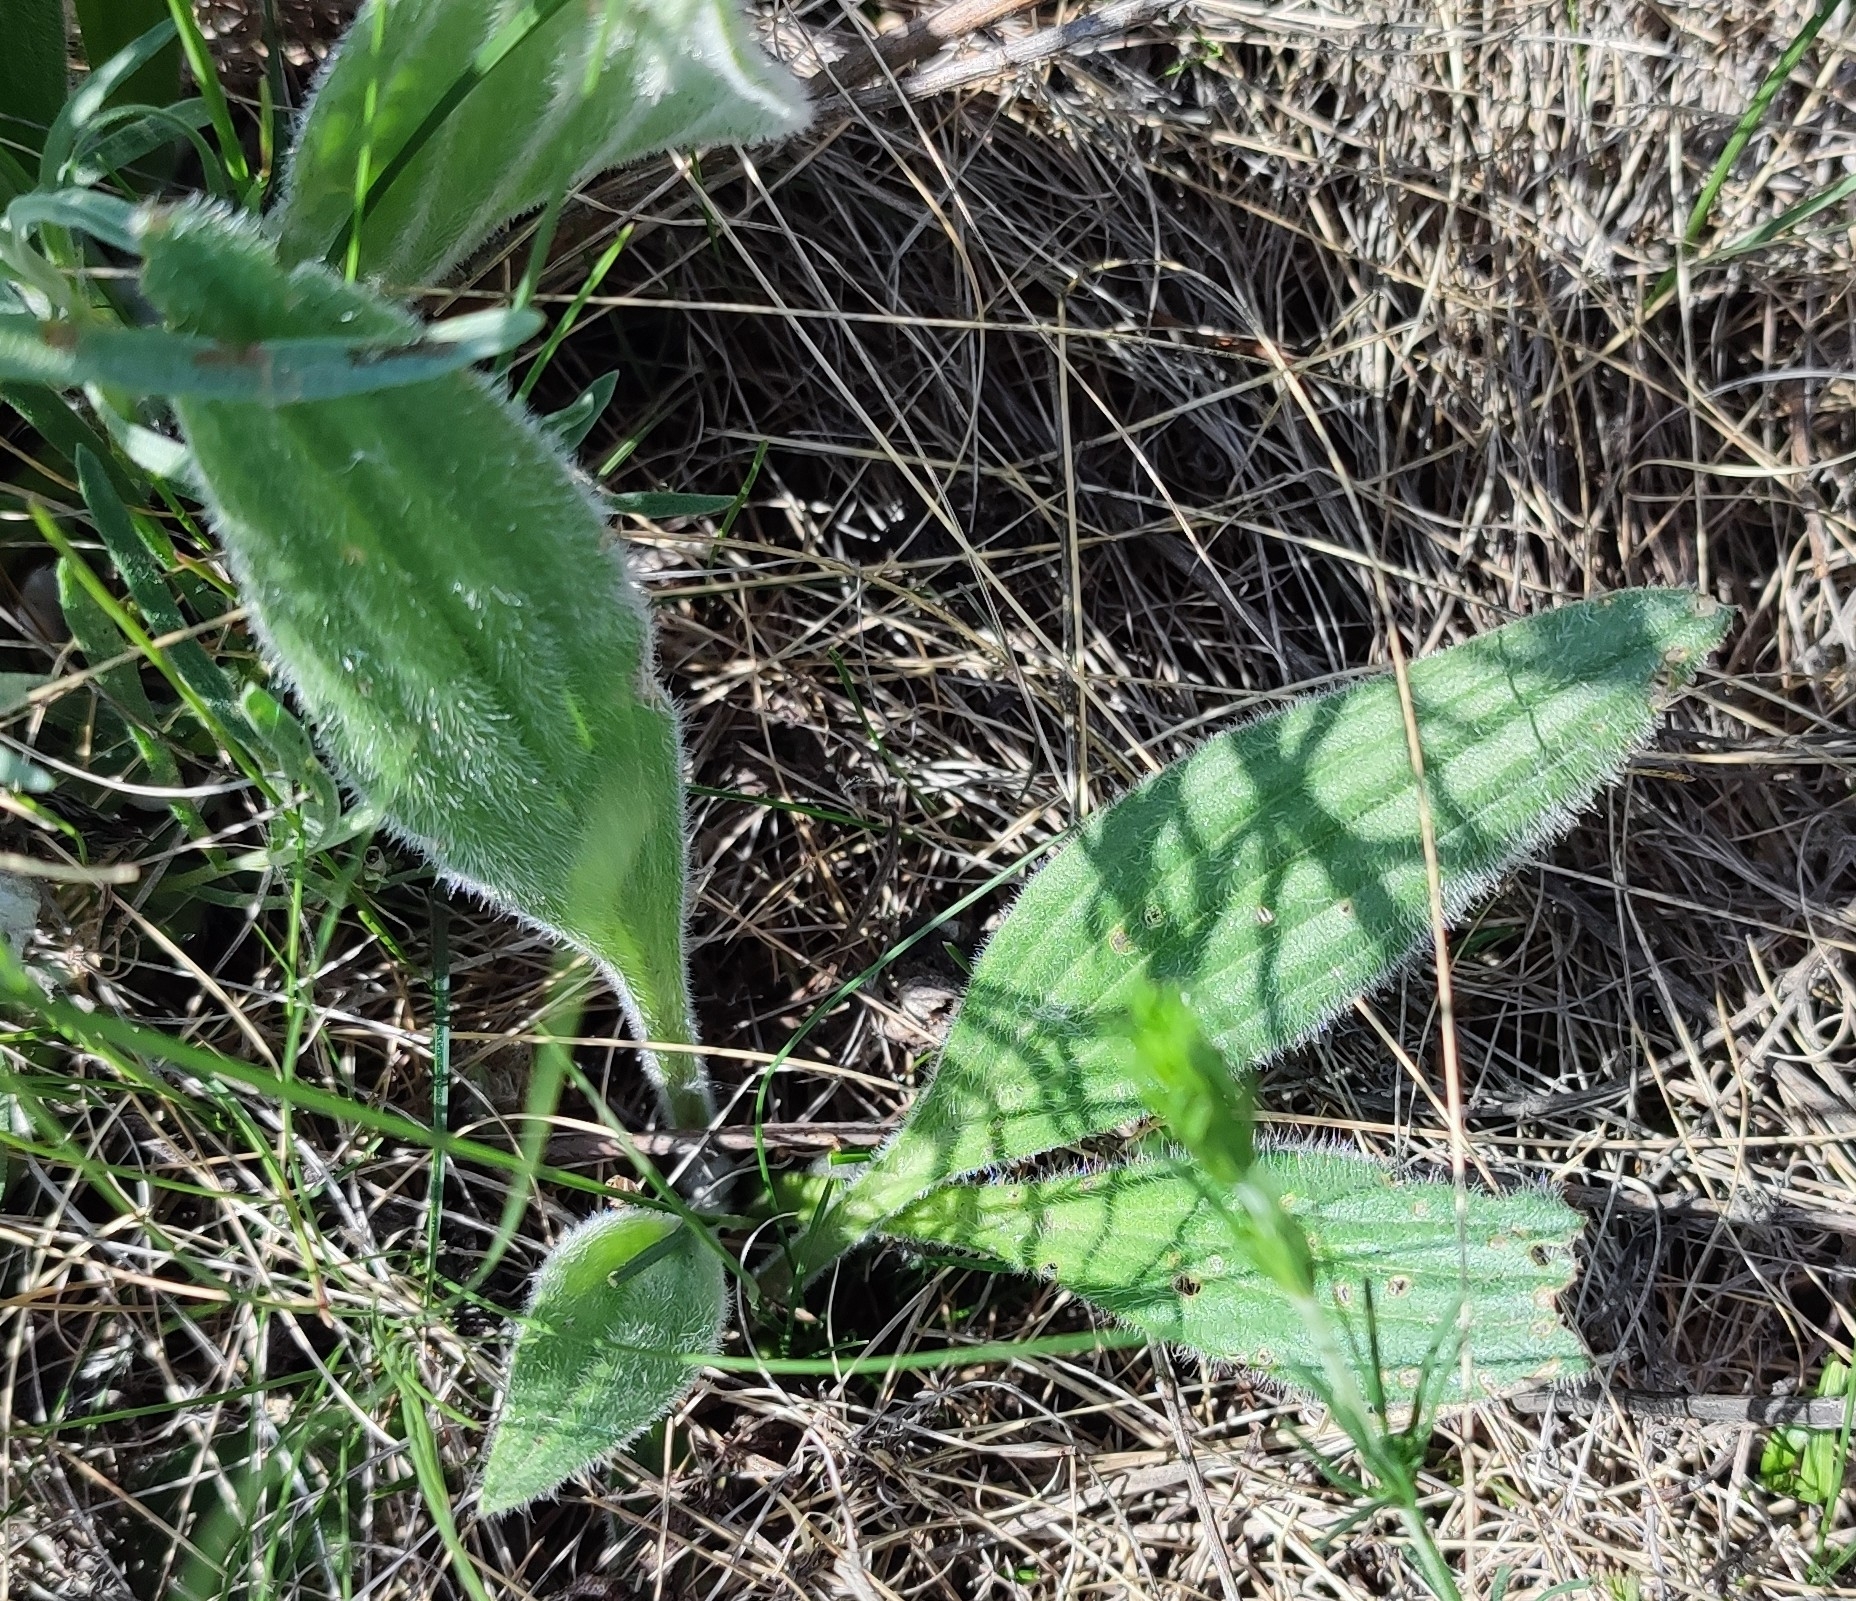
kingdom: Plantae
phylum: Tracheophyta
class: Magnoliopsida
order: Lamiales
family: Plantaginaceae
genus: Plantago
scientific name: Plantago urvillei
